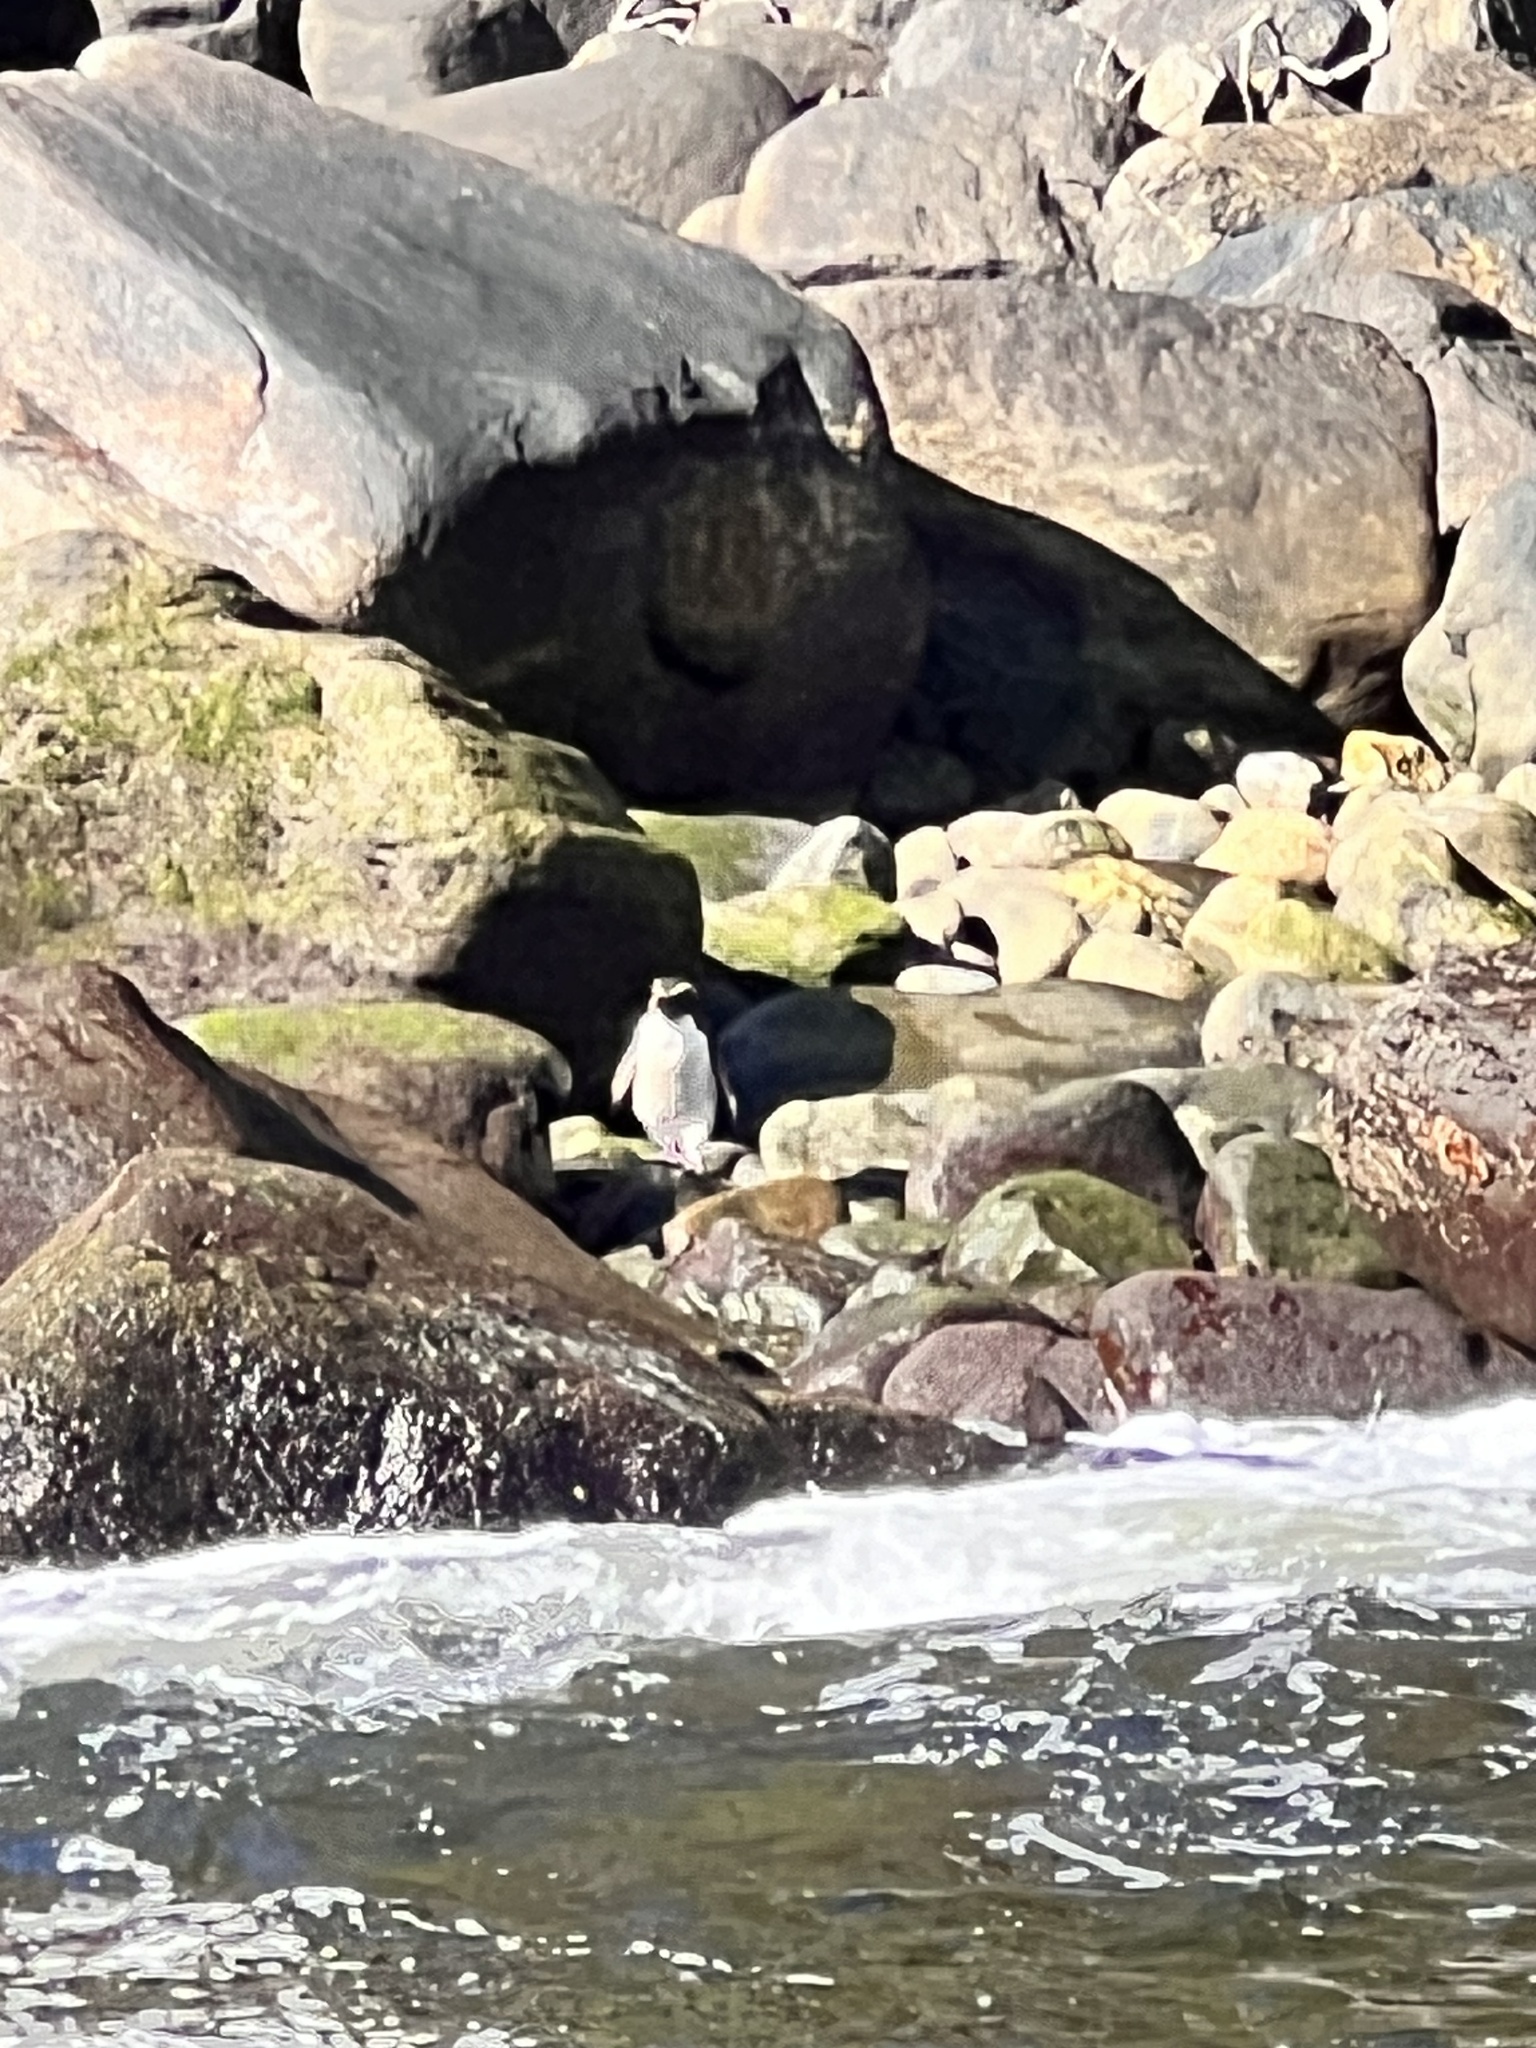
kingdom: Animalia
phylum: Chordata
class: Aves
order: Sphenisciformes
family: Spheniscidae
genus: Eudyptes
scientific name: Eudyptes pachyrhynchus
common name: Fiordland penguin
